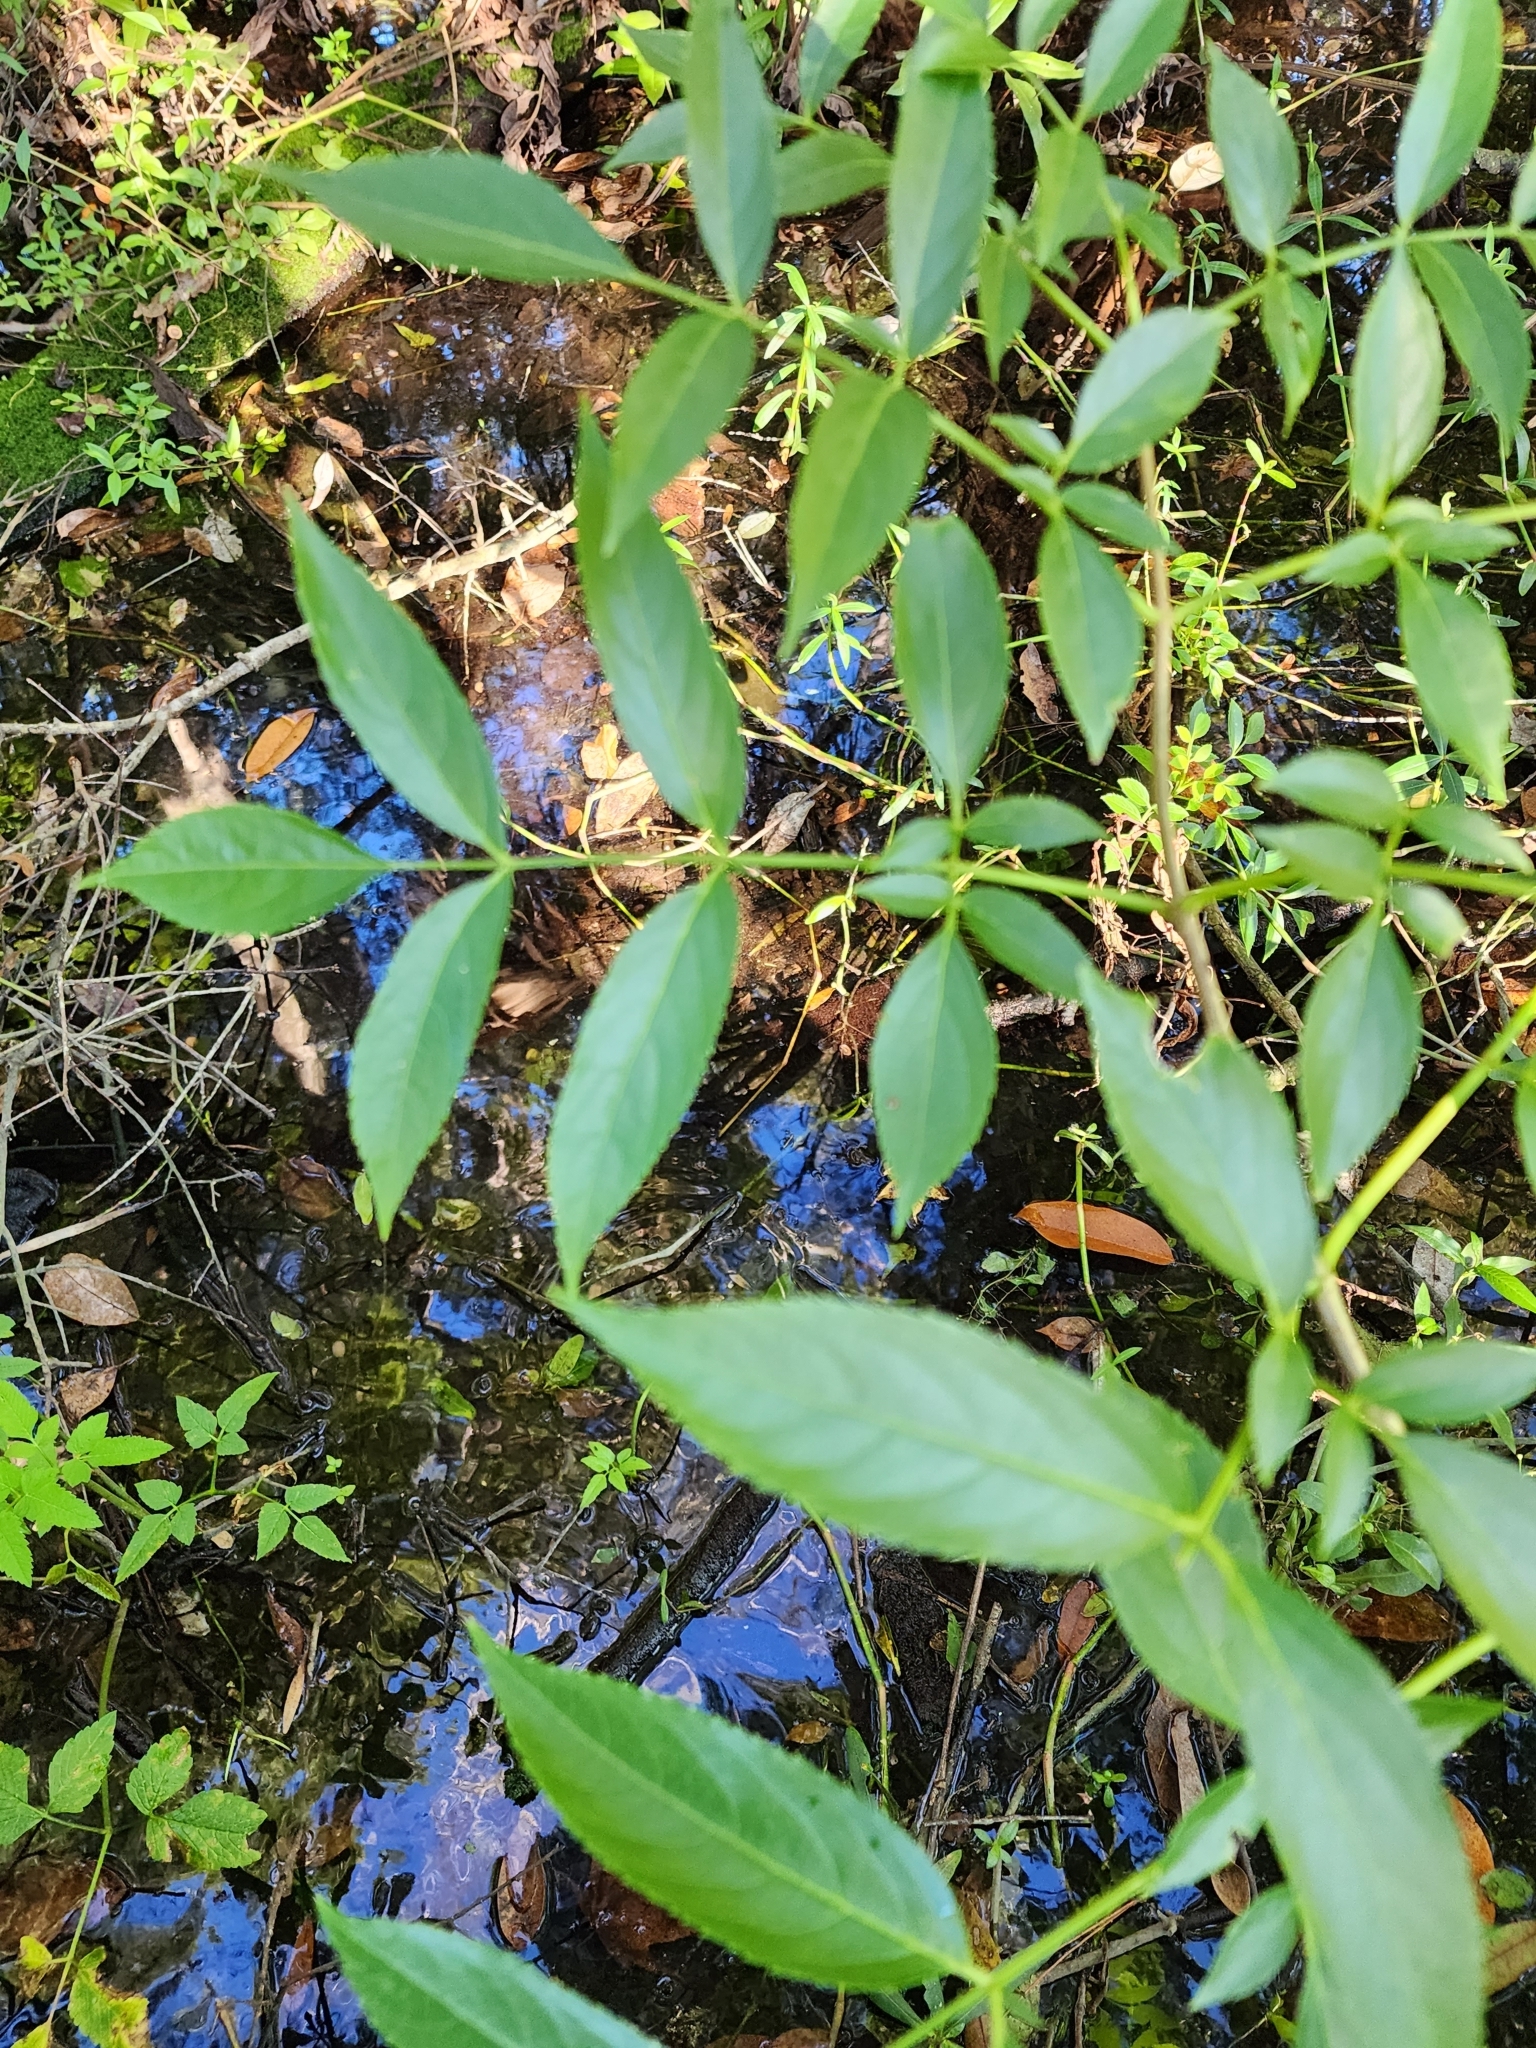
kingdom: Plantae
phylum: Tracheophyta
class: Magnoliopsida
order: Dipsacales
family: Viburnaceae
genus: Sambucus
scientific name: Sambucus canadensis
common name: American elder
